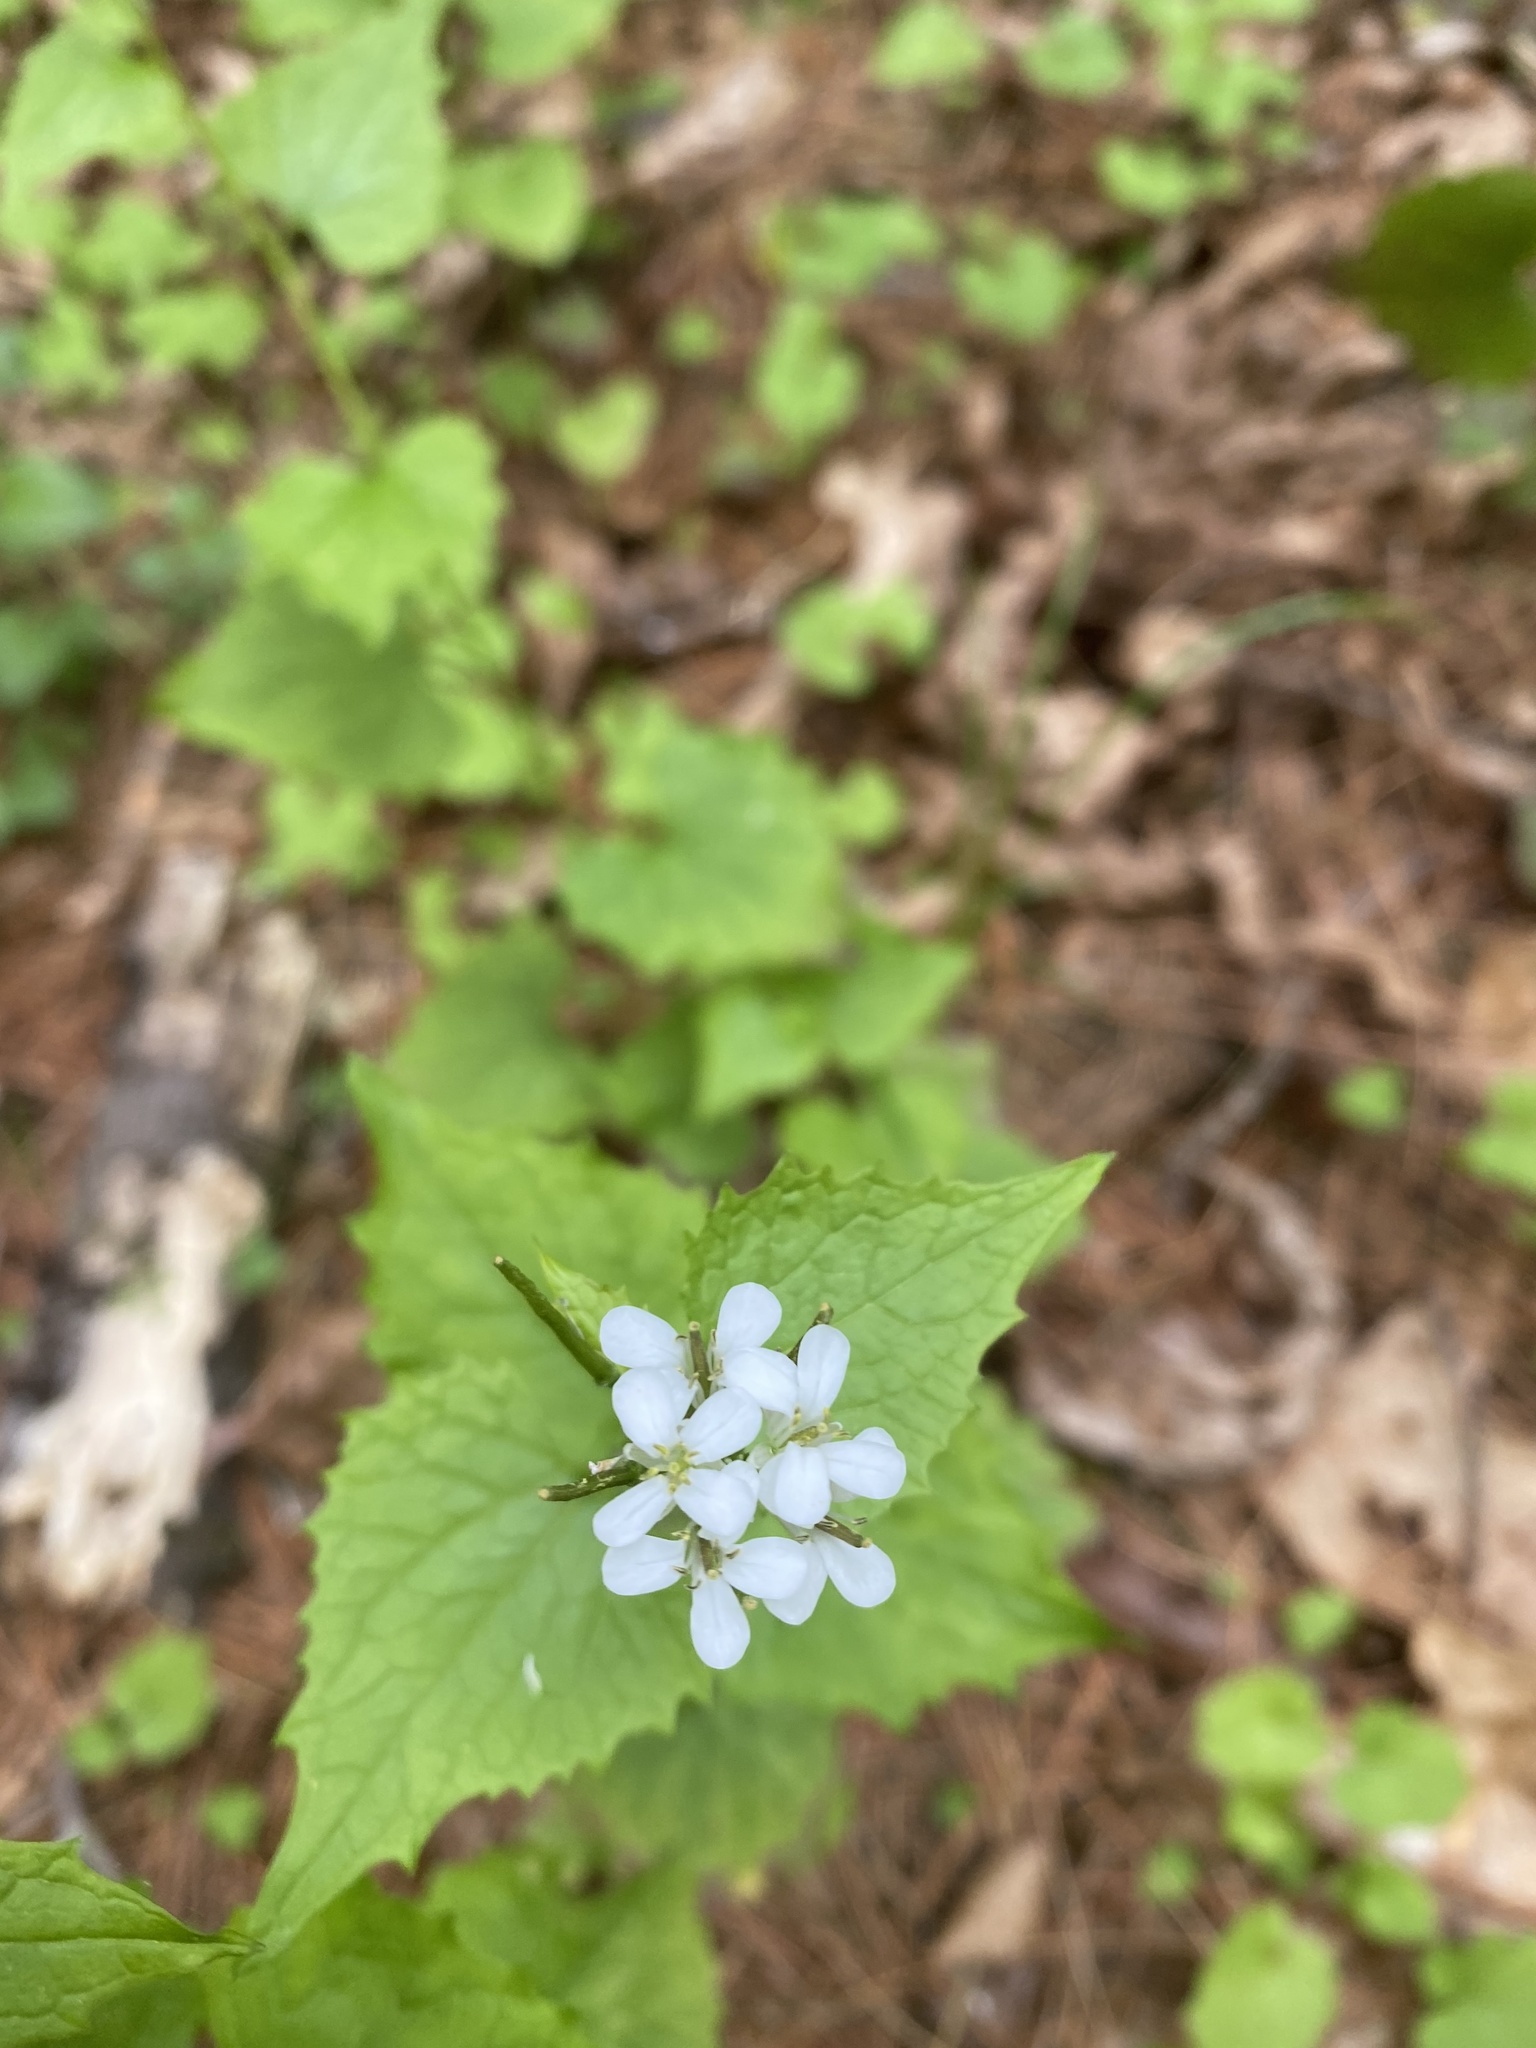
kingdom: Plantae
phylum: Tracheophyta
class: Magnoliopsida
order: Brassicales
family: Brassicaceae
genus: Alliaria
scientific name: Alliaria petiolata
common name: Garlic mustard
